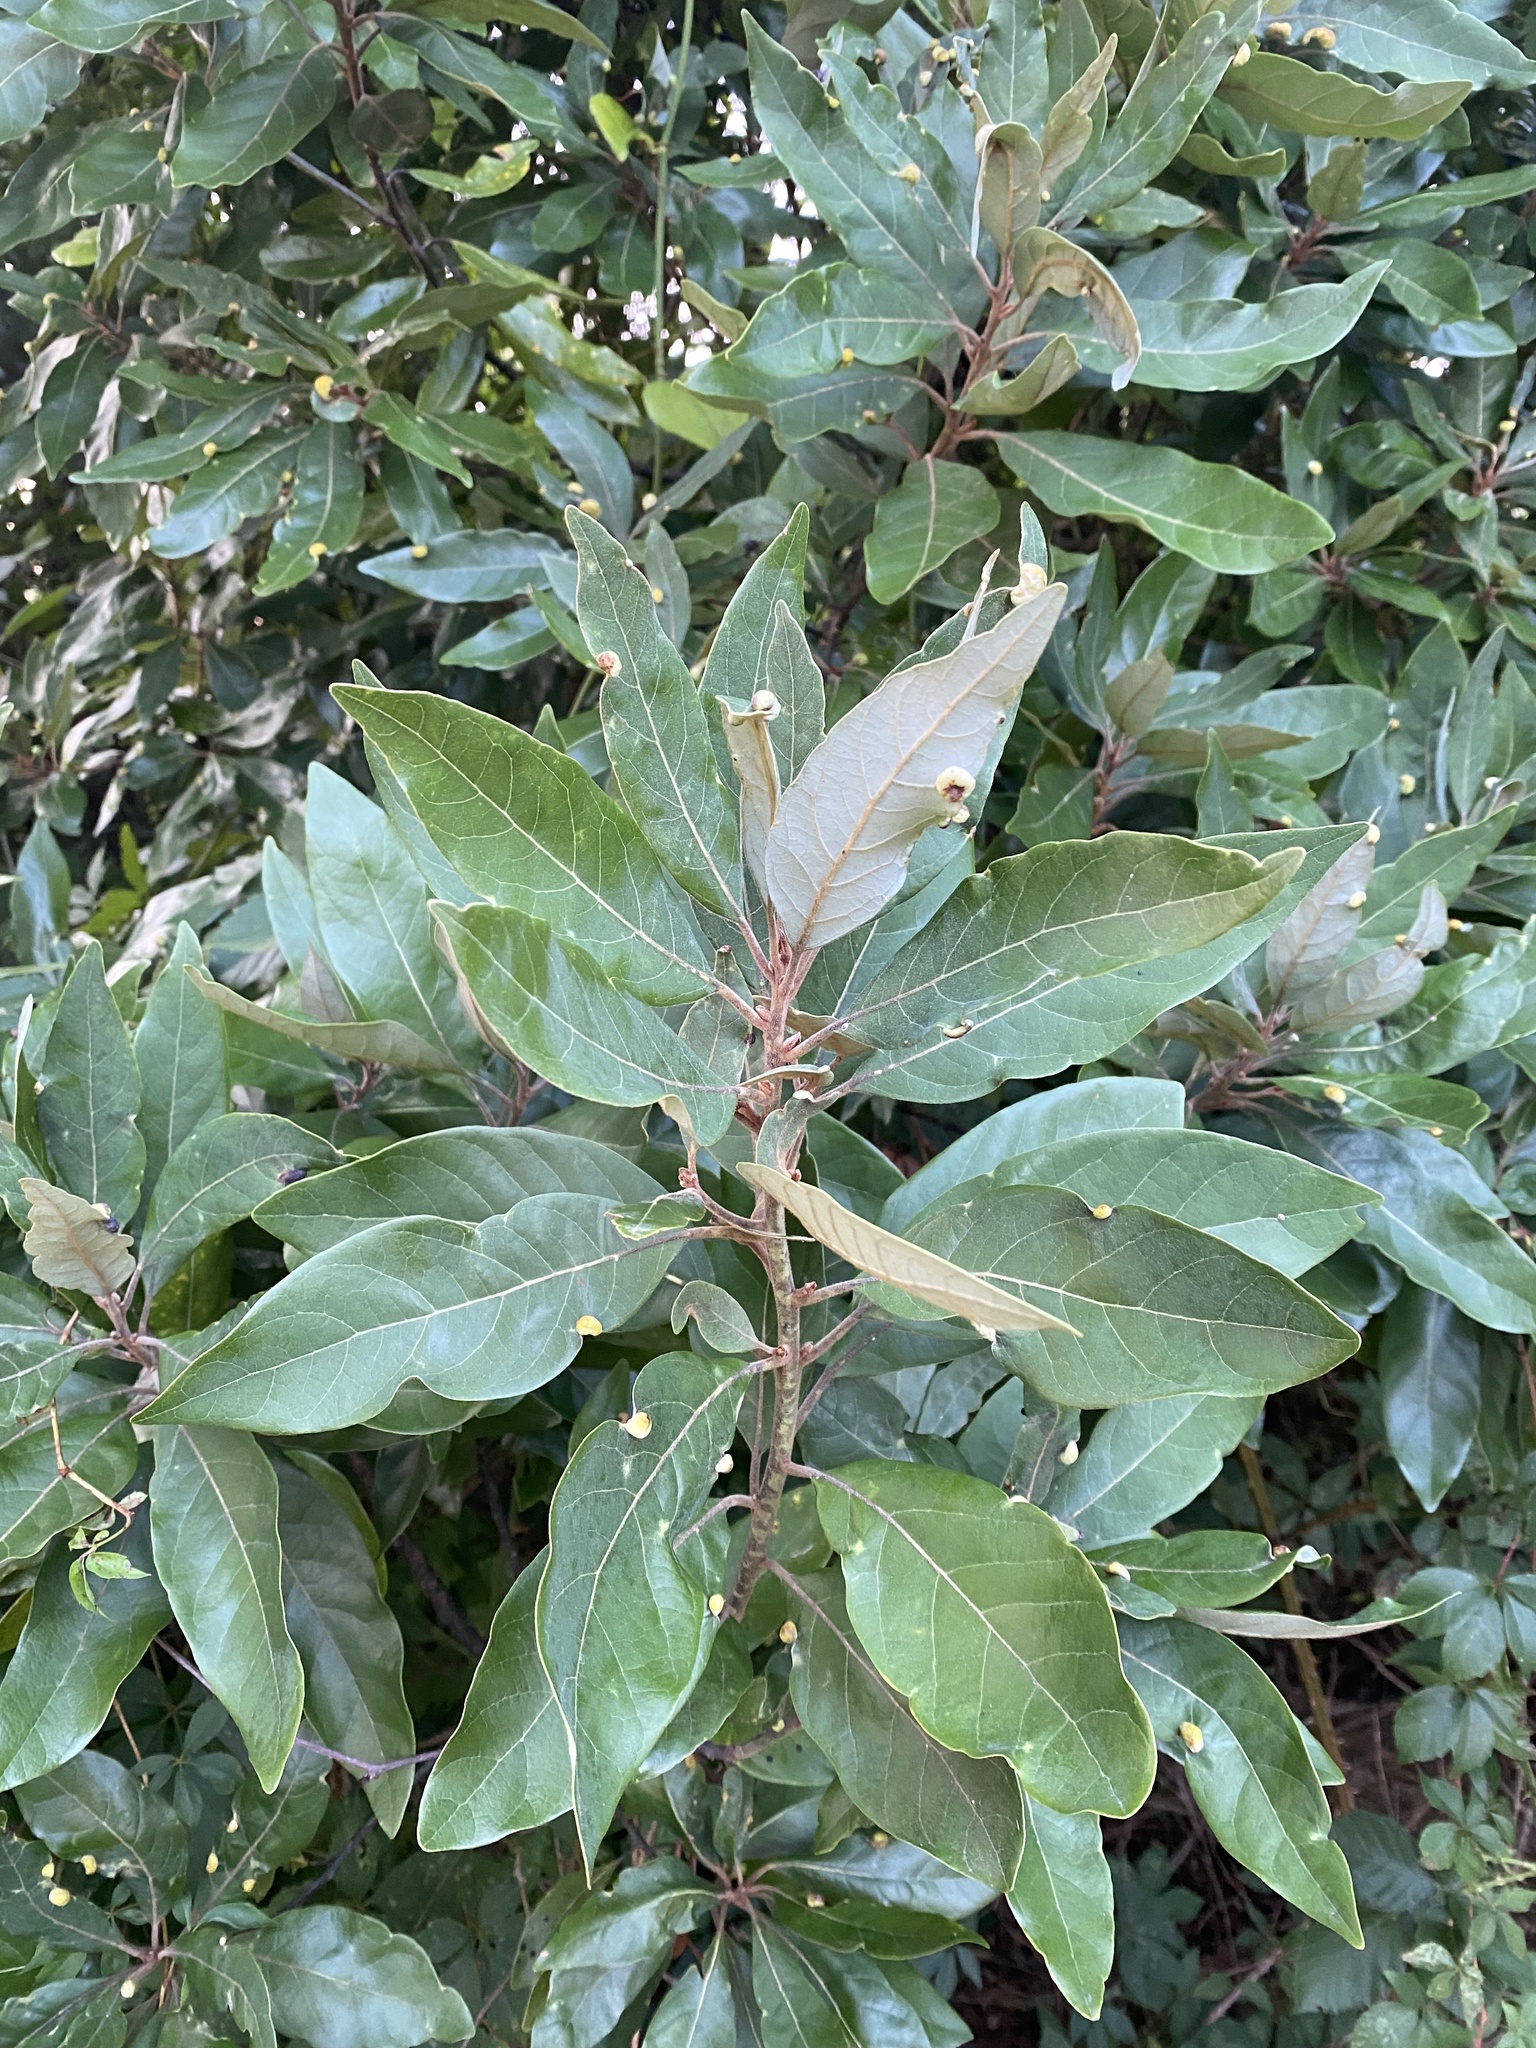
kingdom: Plantae
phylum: Tracheophyta
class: Magnoliopsida
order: Laurales
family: Lauraceae
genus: Persea
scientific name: Persea palustris
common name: Swampbay
